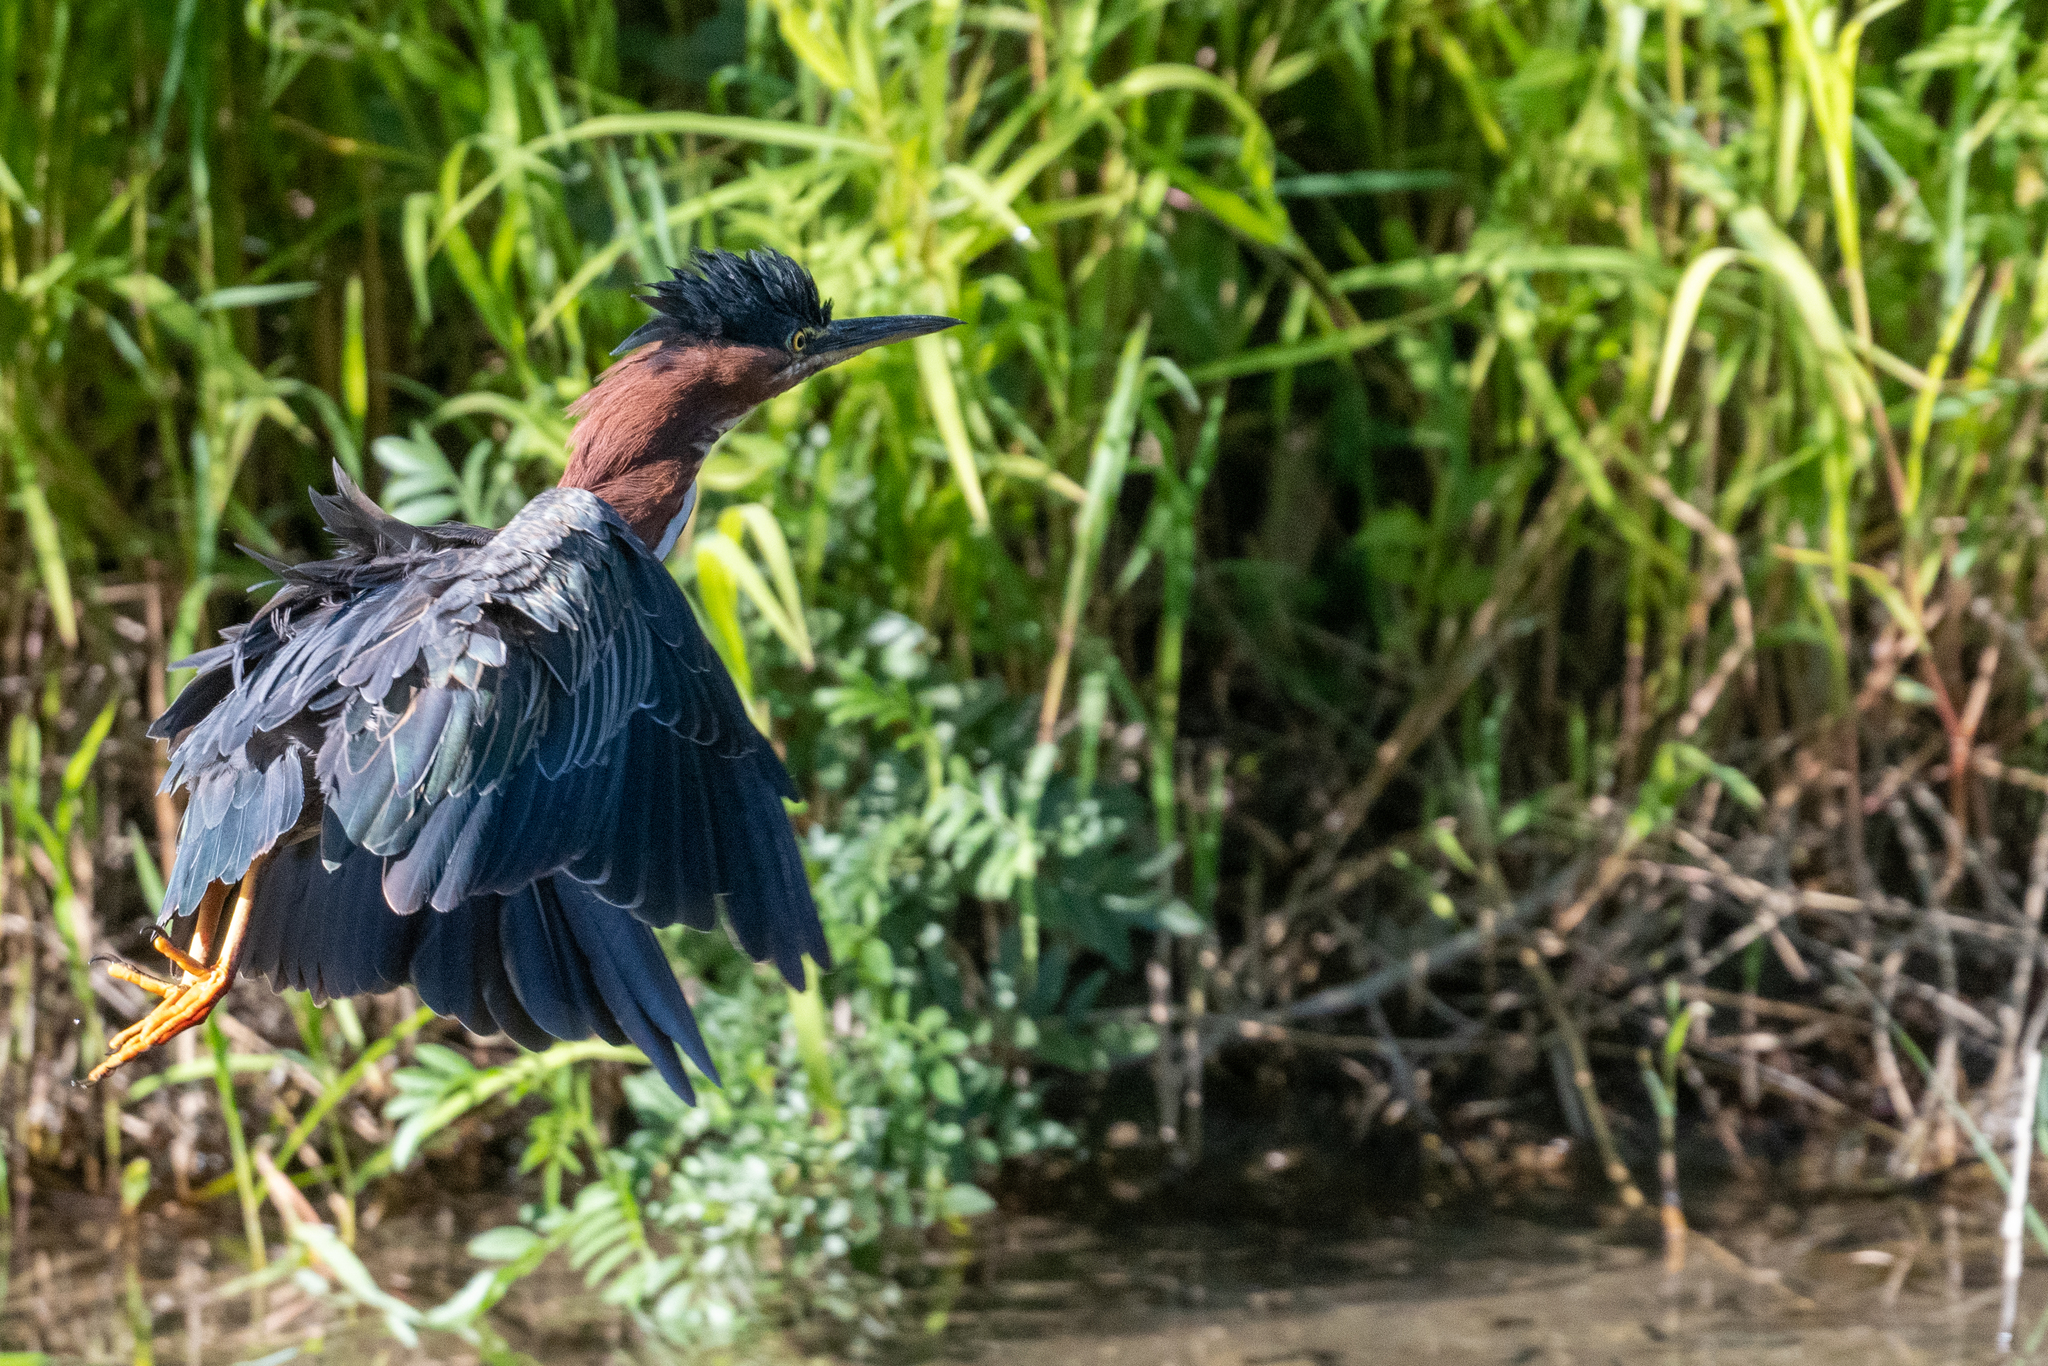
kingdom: Animalia
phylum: Chordata
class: Aves
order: Pelecaniformes
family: Ardeidae
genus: Butorides
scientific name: Butorides virescens
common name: Green heron
